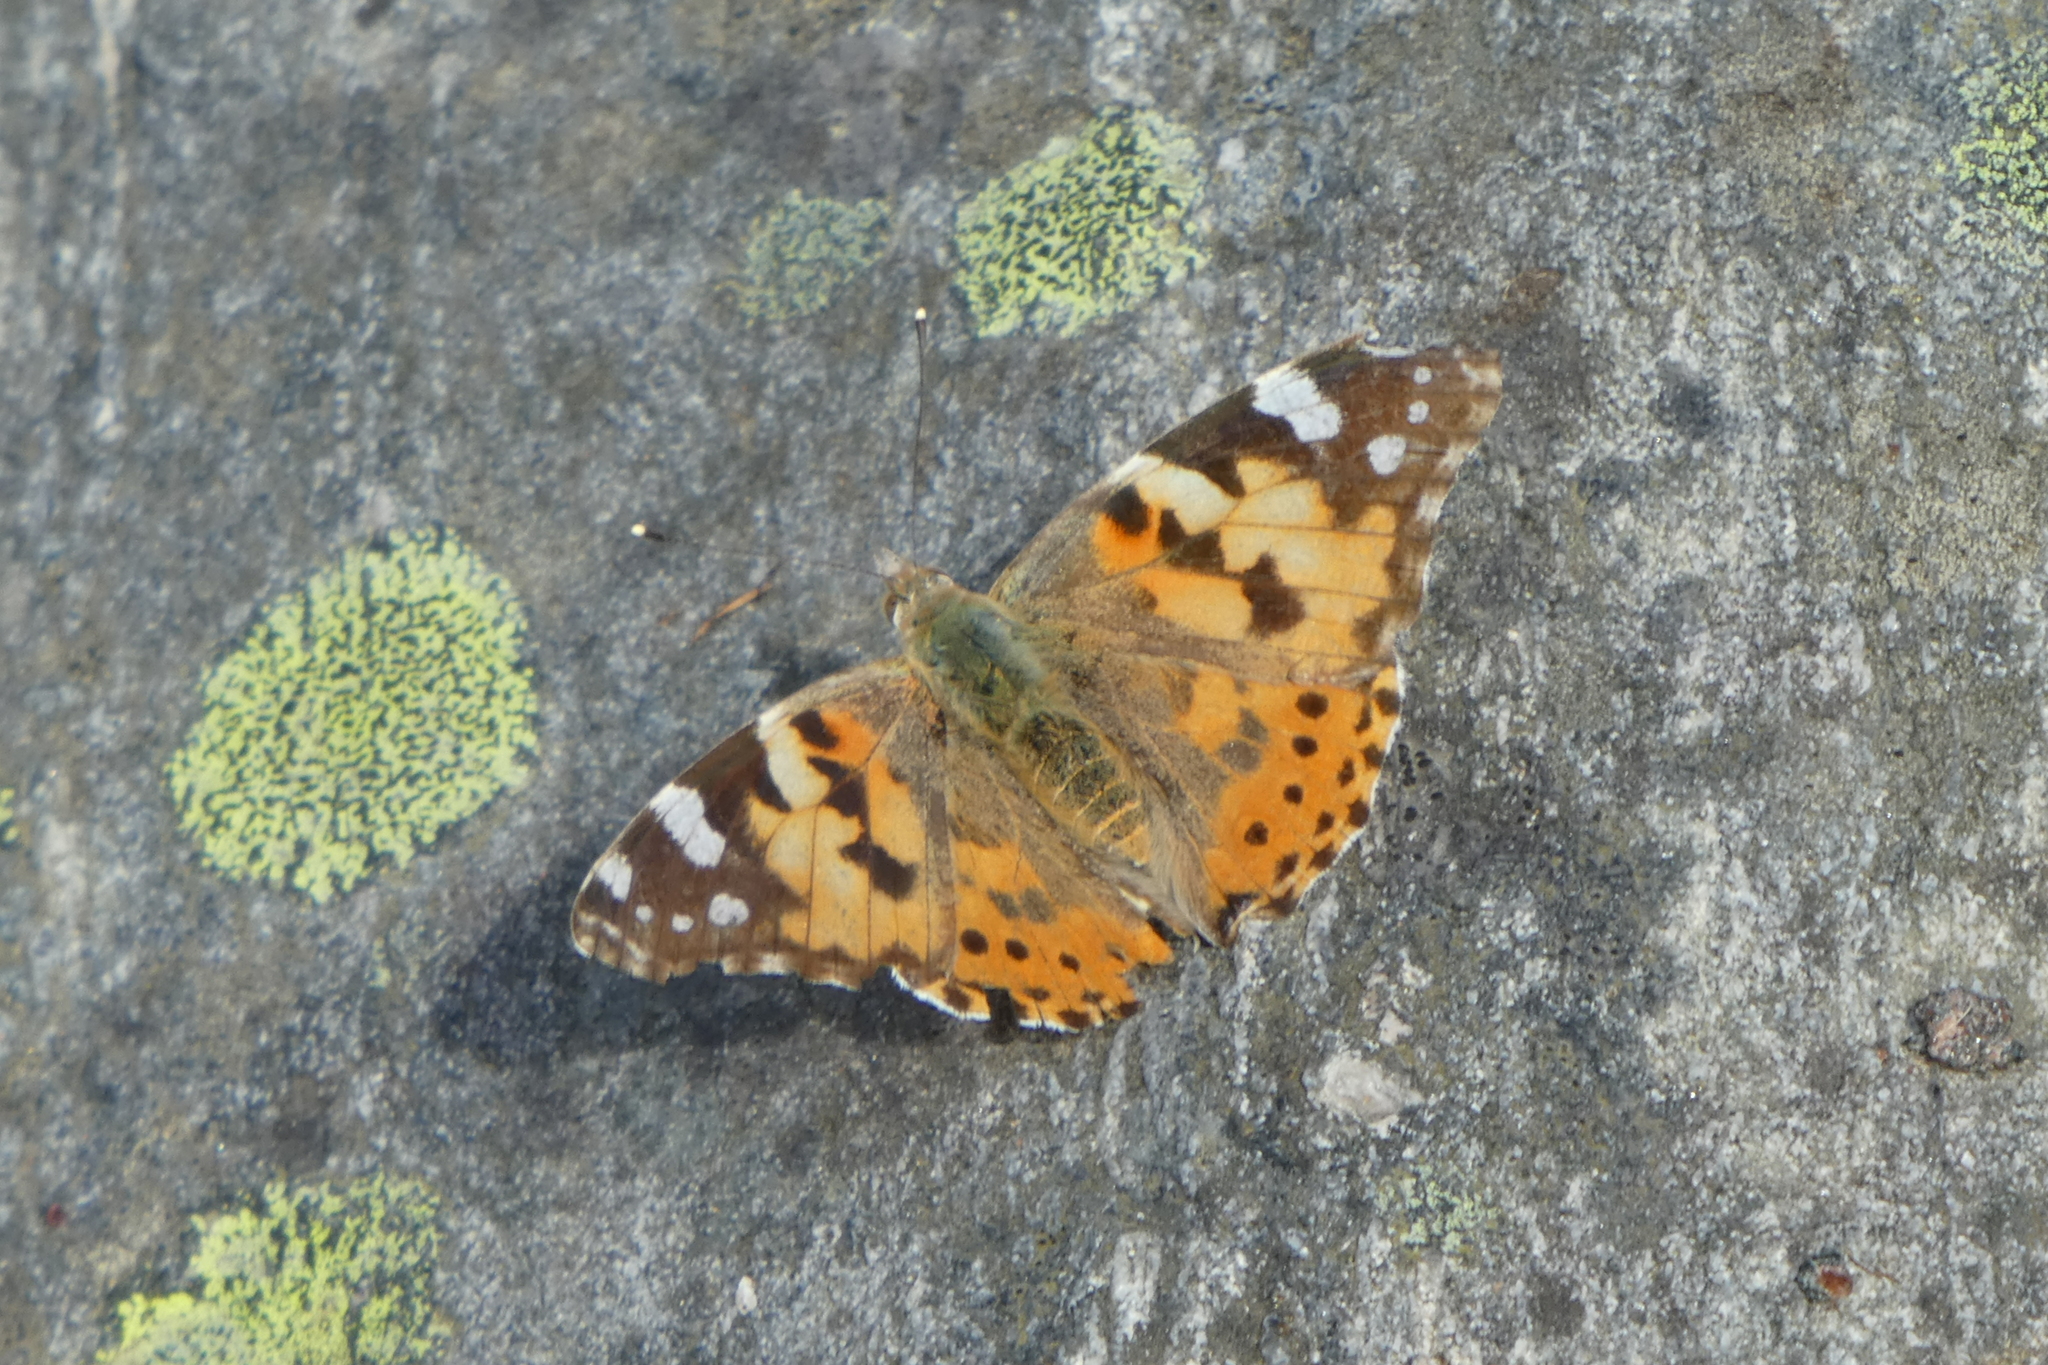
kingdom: Animalia
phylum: Arthropoda
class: Insecta
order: Lepidoptera
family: Nymphalidae
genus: Vanessa
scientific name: Vanessa cardui
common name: Painted lady
